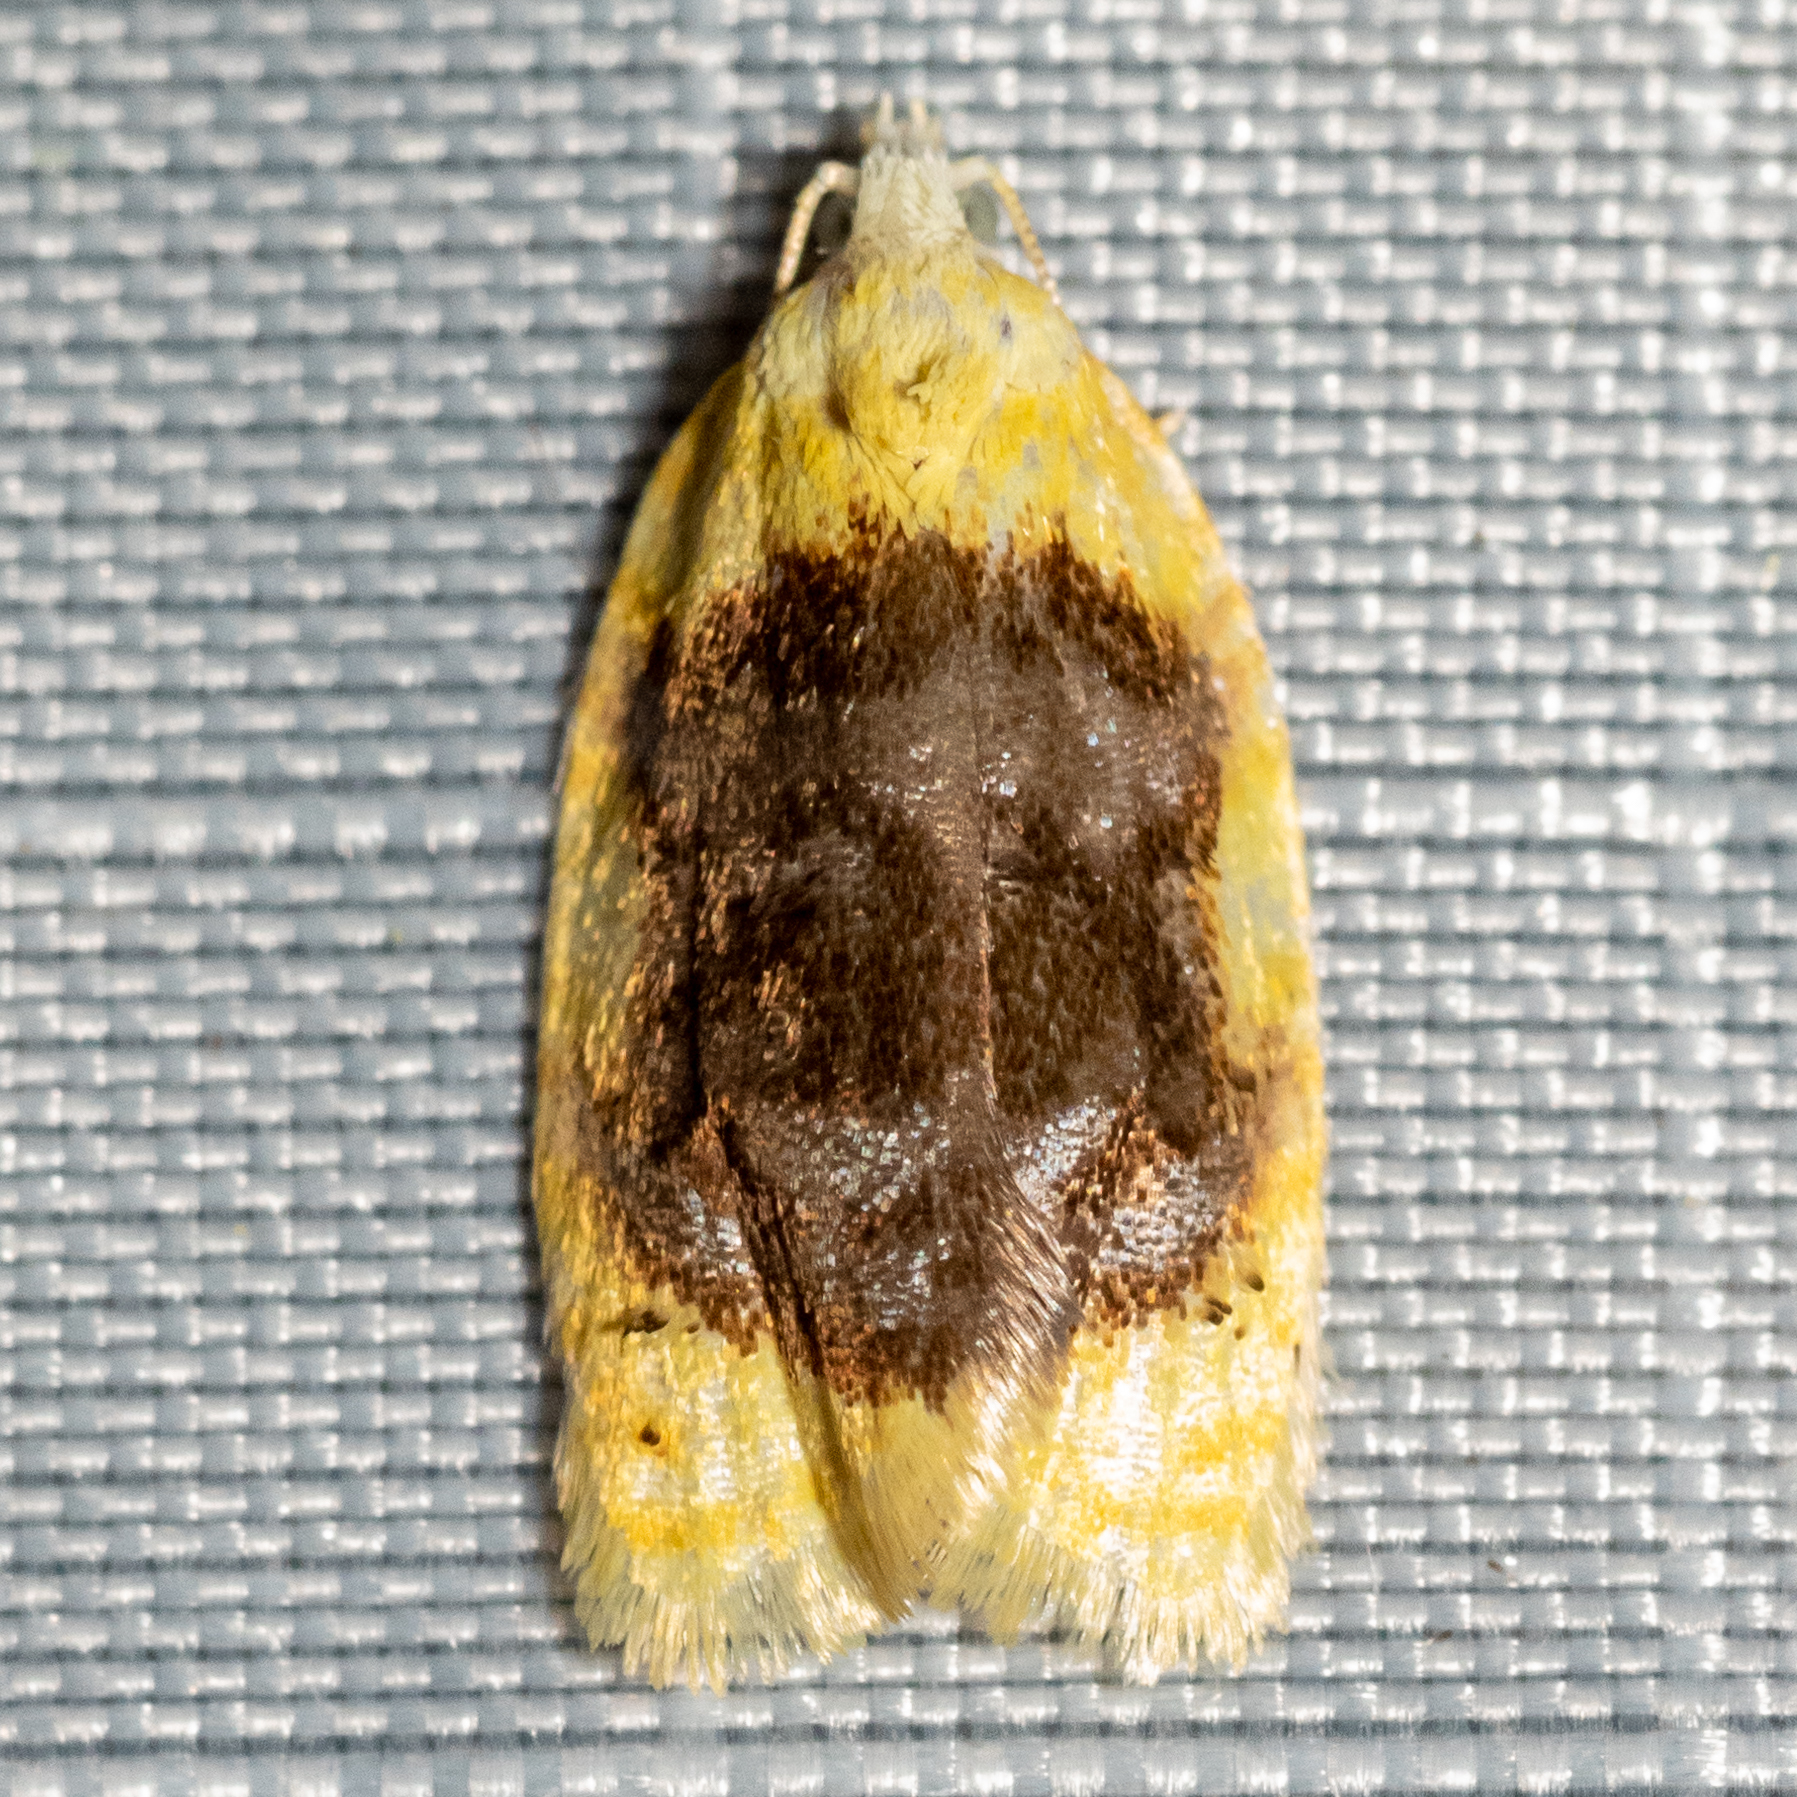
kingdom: Animalia
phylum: Arthropoda
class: Insecta
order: Lepidoptera
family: Tortricidae
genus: Acleris
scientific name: Acleris semipurpurana
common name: Oak leaftier moth
